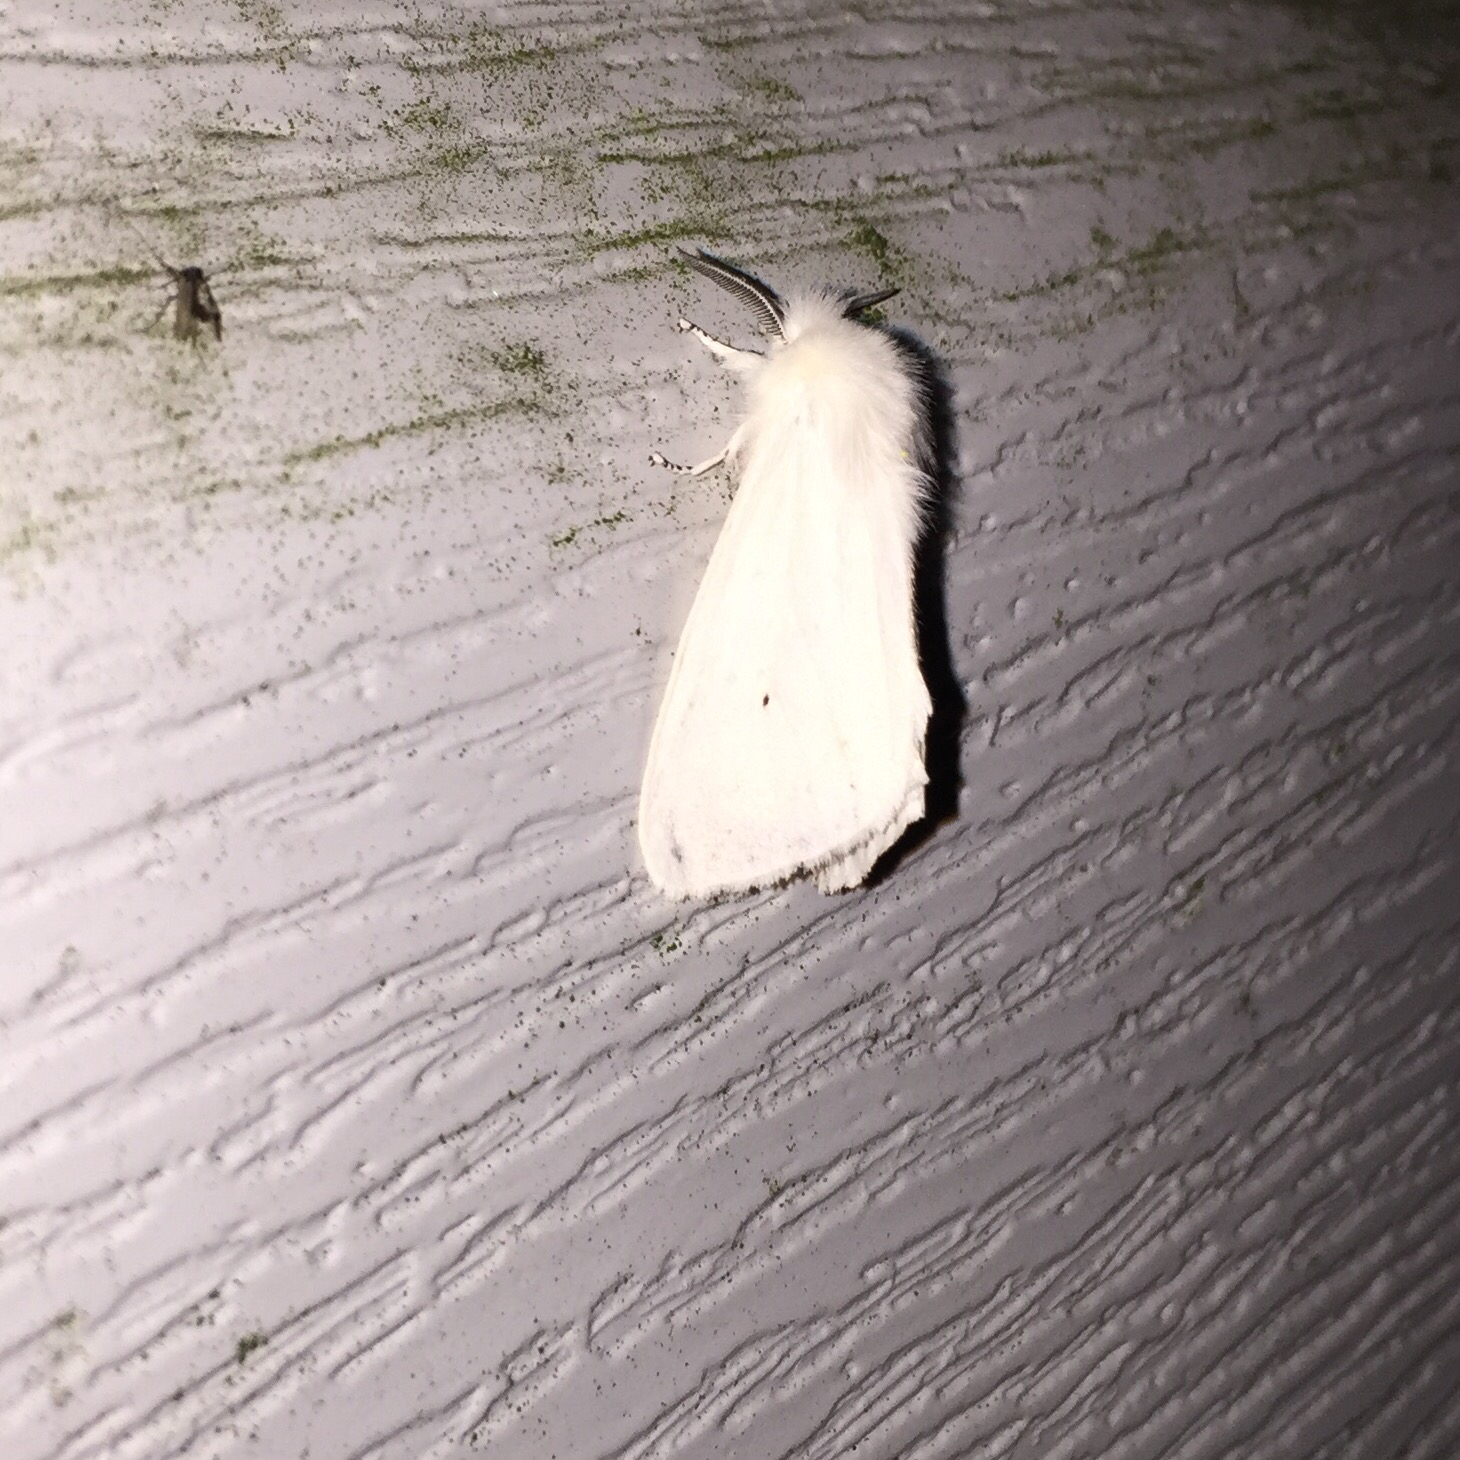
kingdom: Animalia
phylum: Arthropoda
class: Insecta
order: Lepidoptera
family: Erebidae
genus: Spilosoma
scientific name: Spilosoma virginica
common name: Virginia tiger moth
